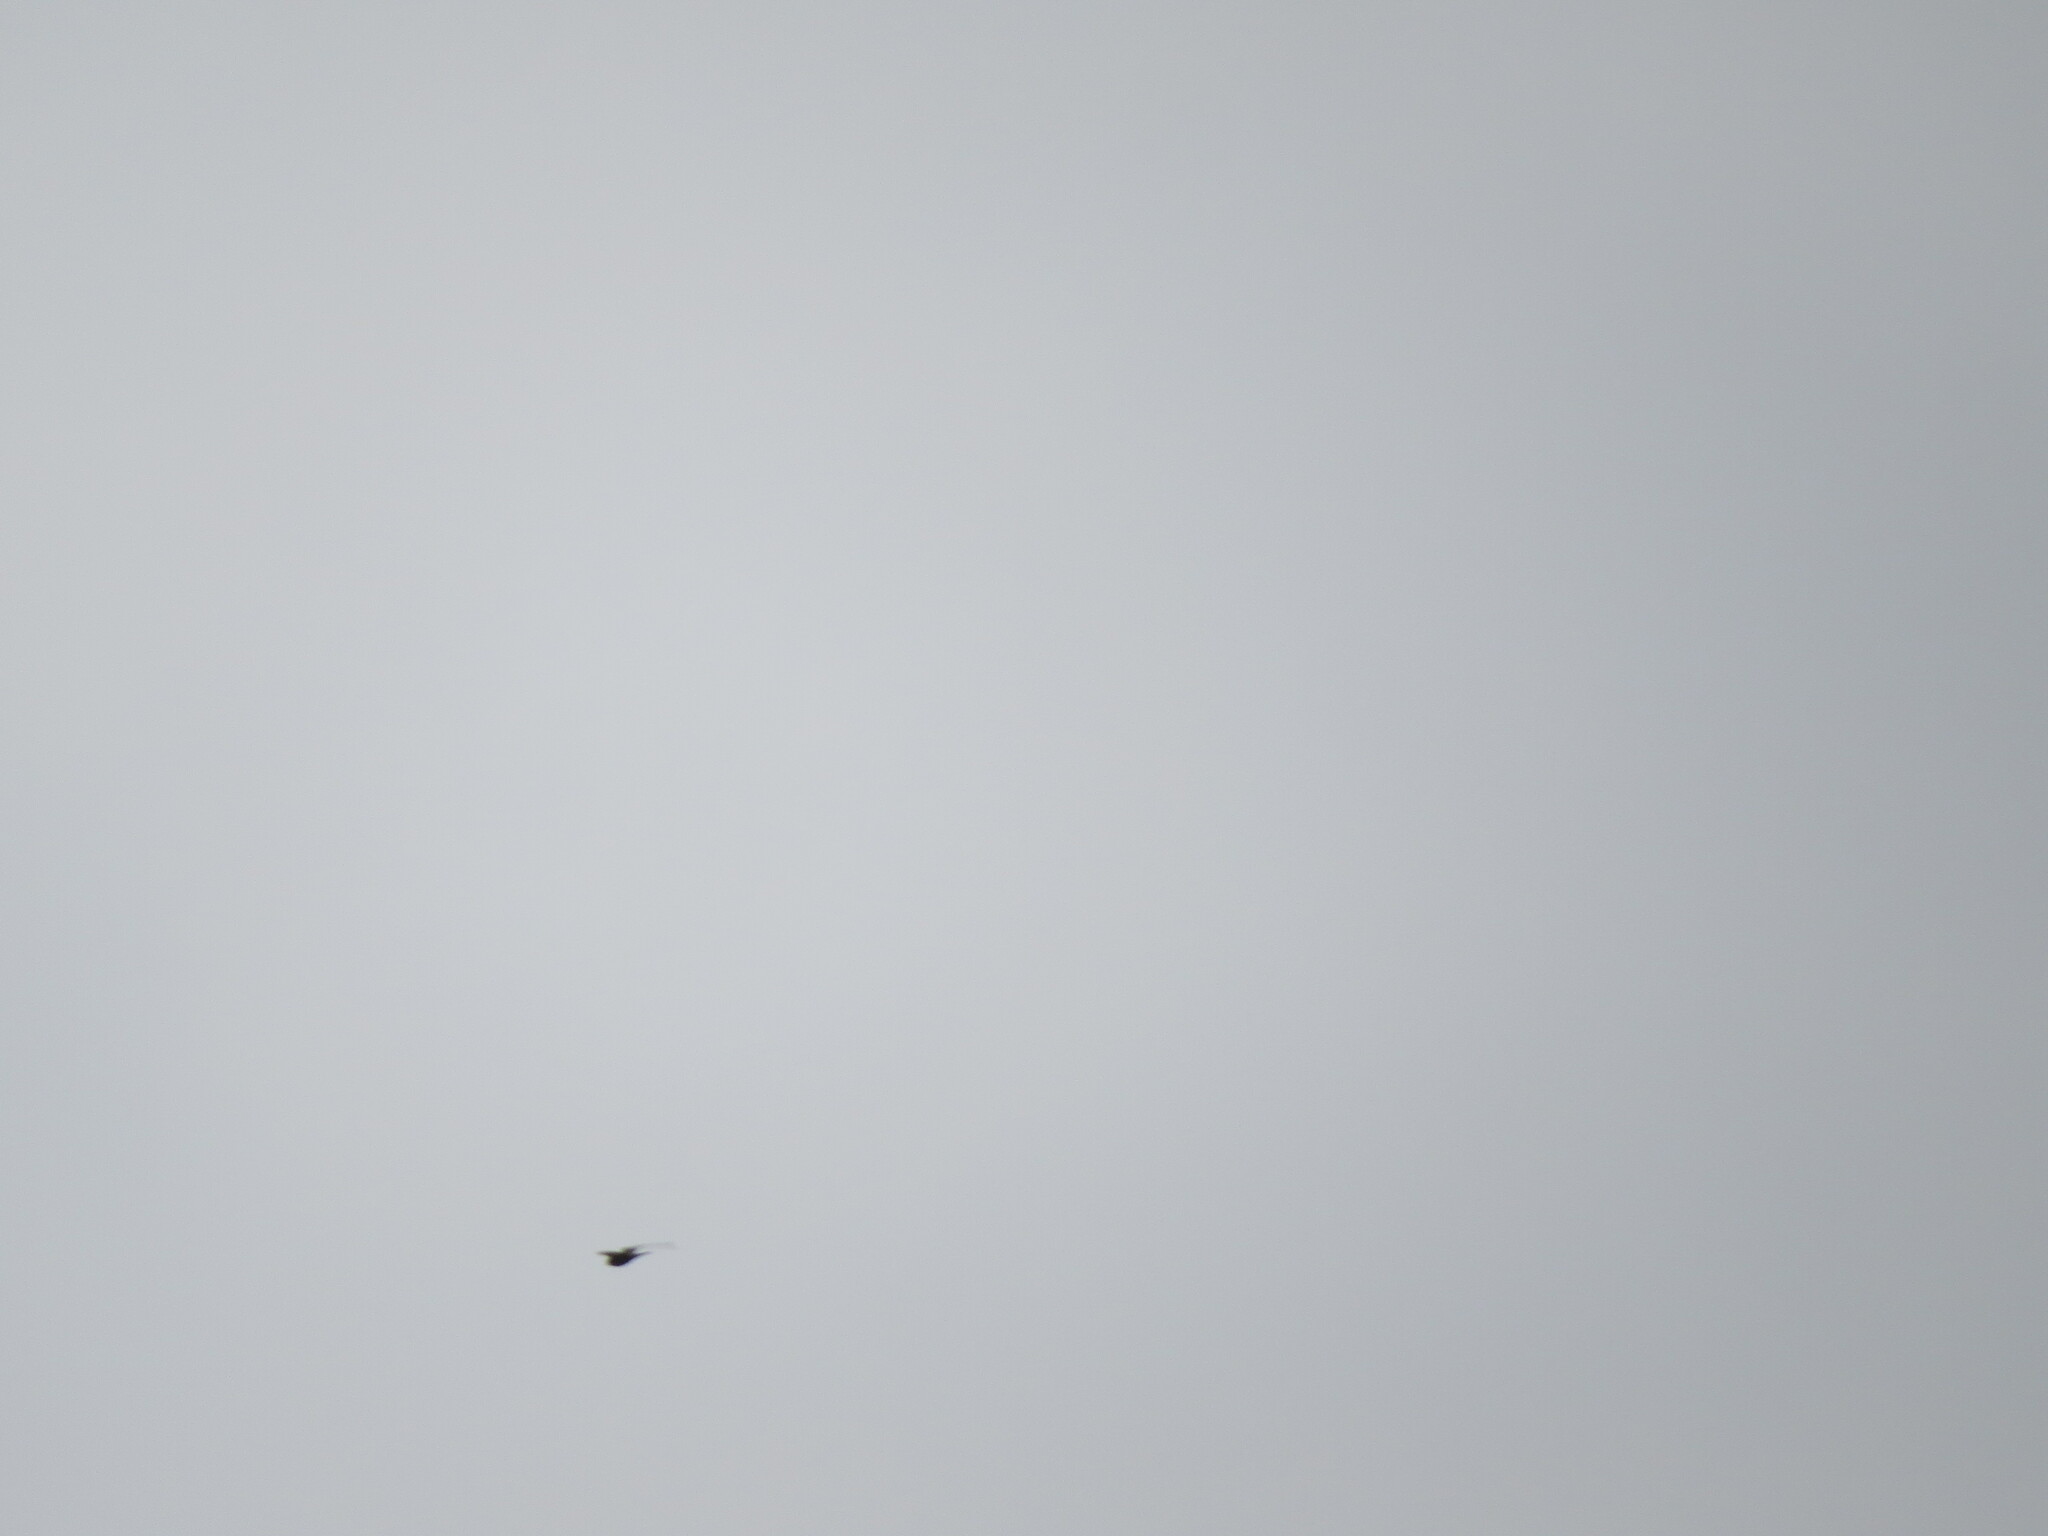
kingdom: Animalia
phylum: Chordata
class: Aves
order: Falconiformes
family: Falconidae
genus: Falco
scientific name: Falco subbuteo
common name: Eurasian hobby
